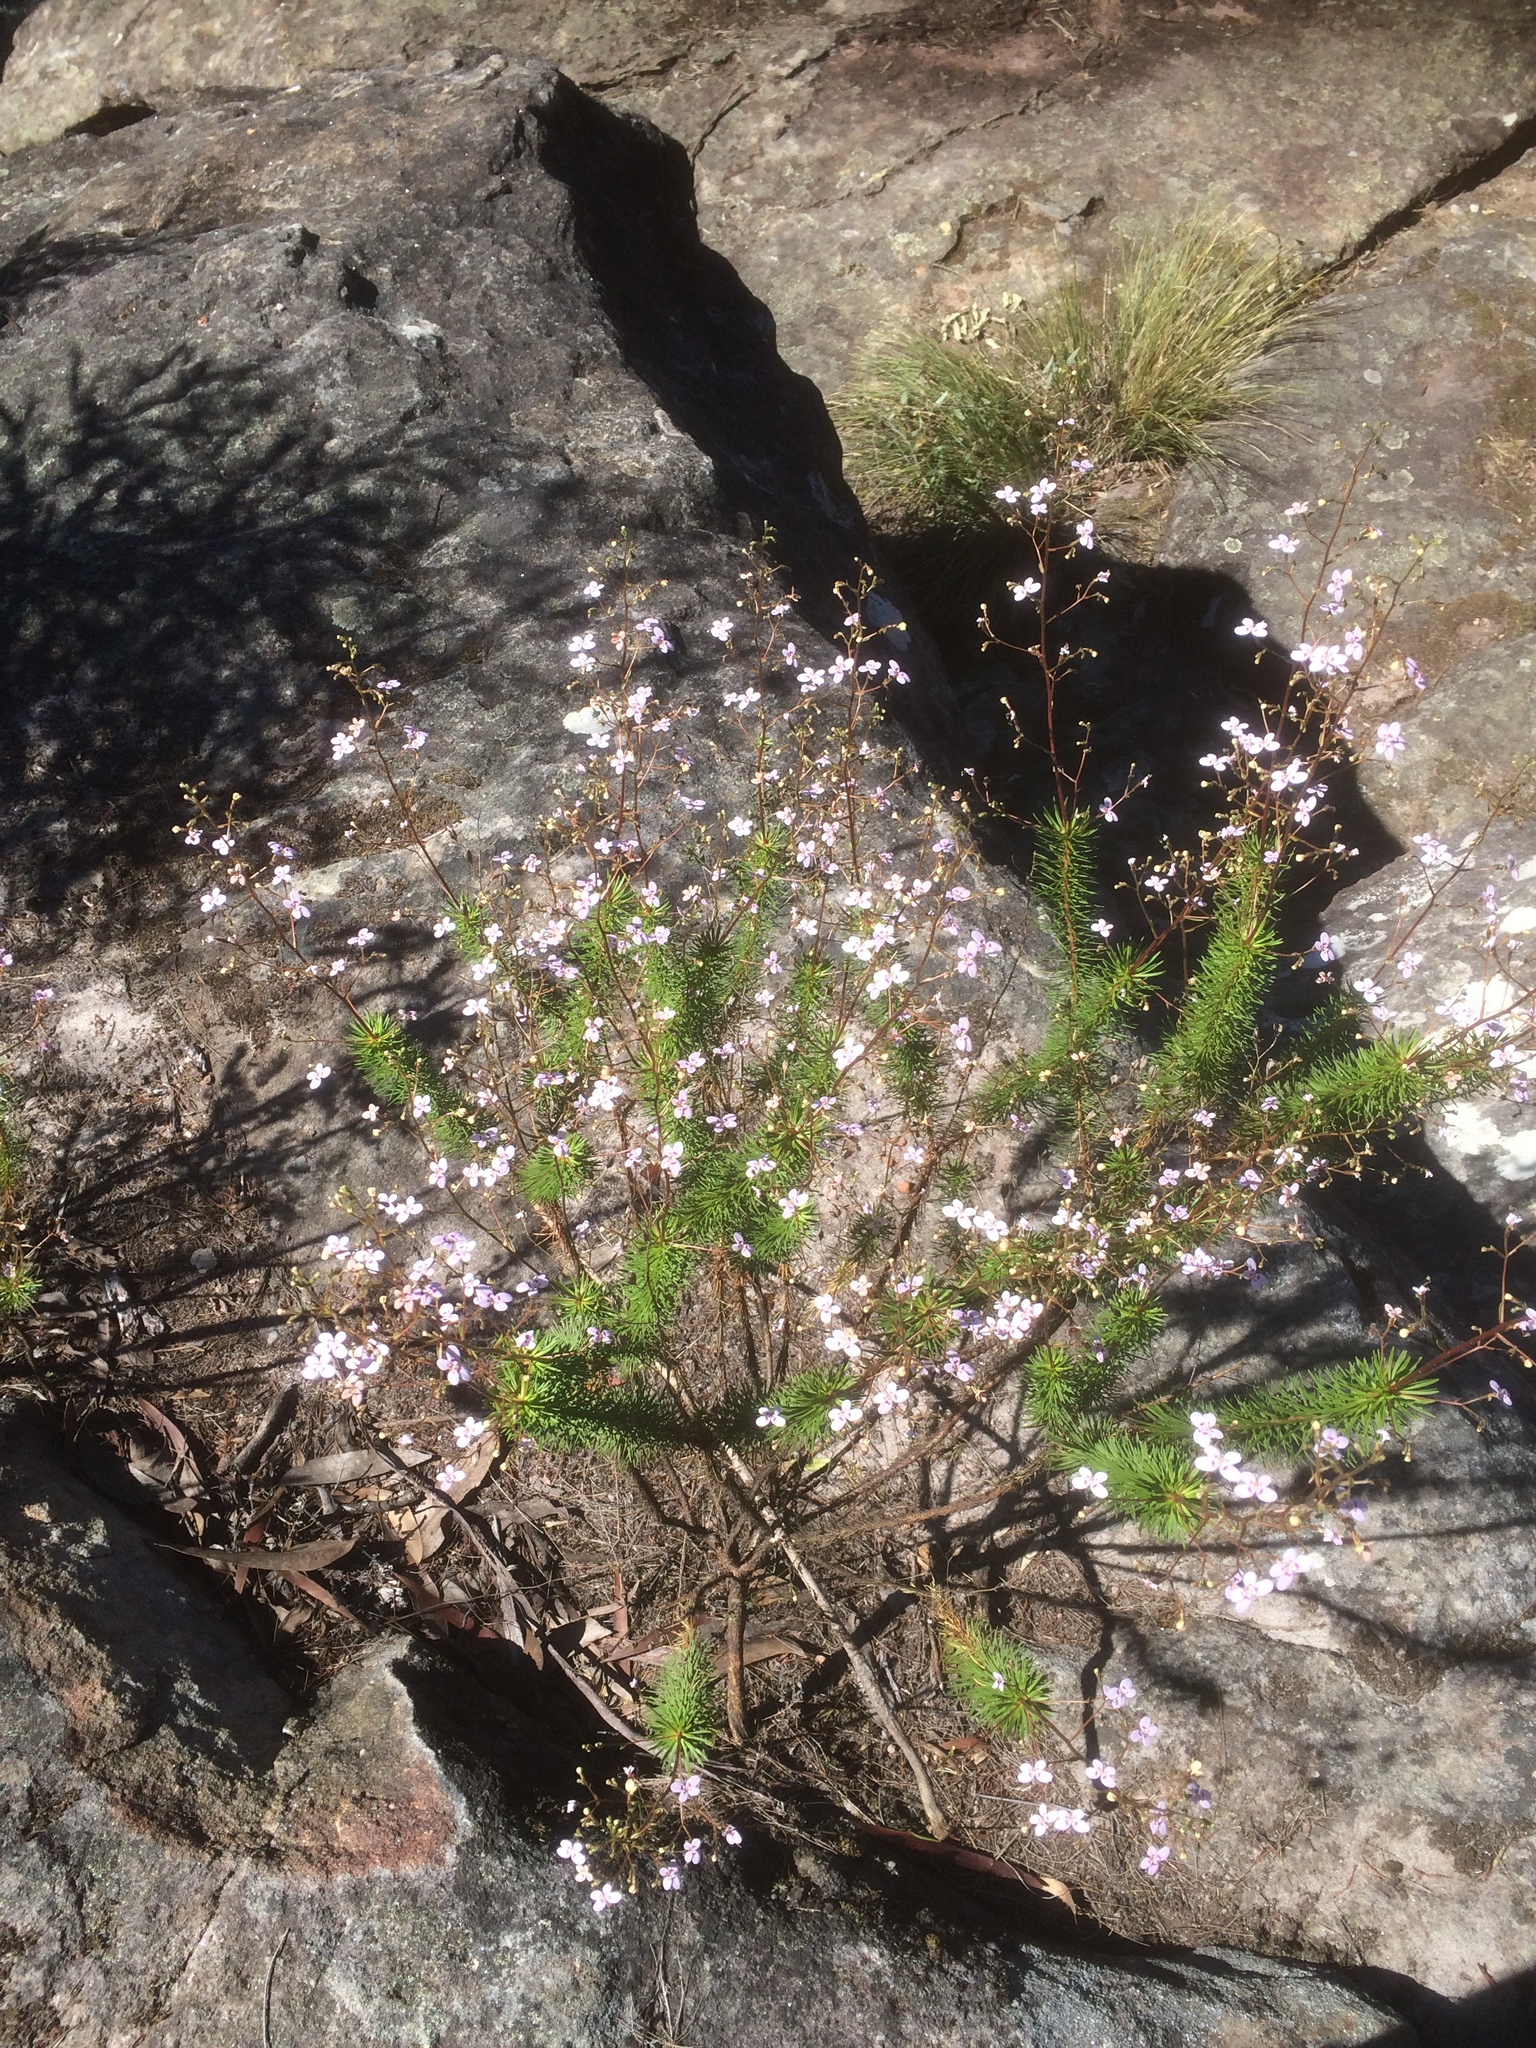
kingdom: Plantae
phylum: Tracheophyta
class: Magnoliopsida
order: Asterales
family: Stylidiaceae
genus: Stylidium
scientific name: Stylidium laricifolium
